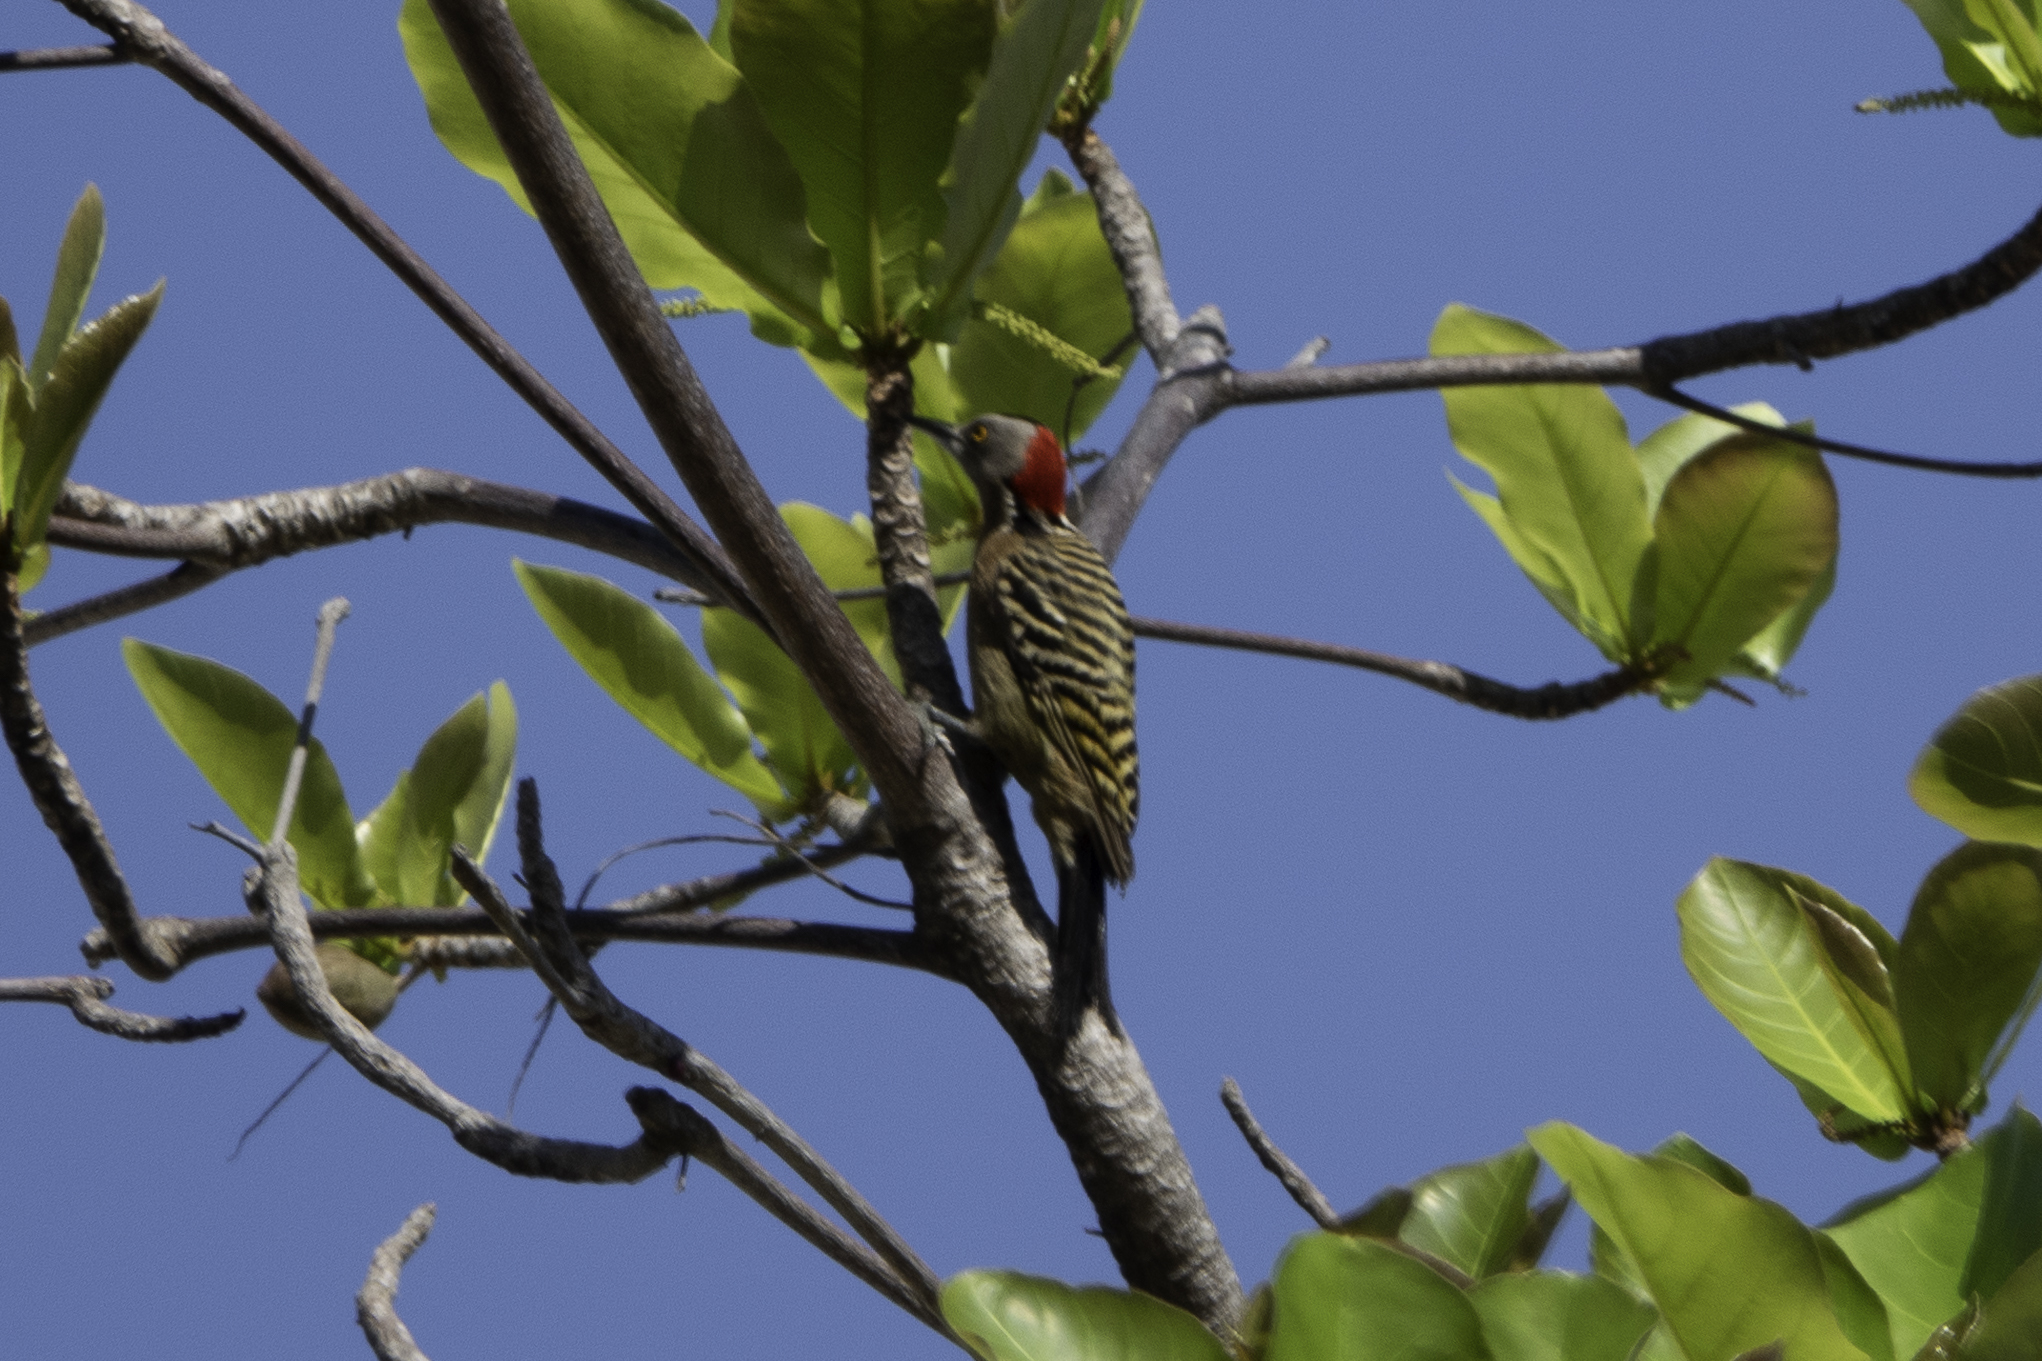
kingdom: Animalia
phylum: Chordata
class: Aves
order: Piciformes
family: Picidae
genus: Melanerpes
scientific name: Melanerpes striatus
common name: Hispaniolan woodpecker
